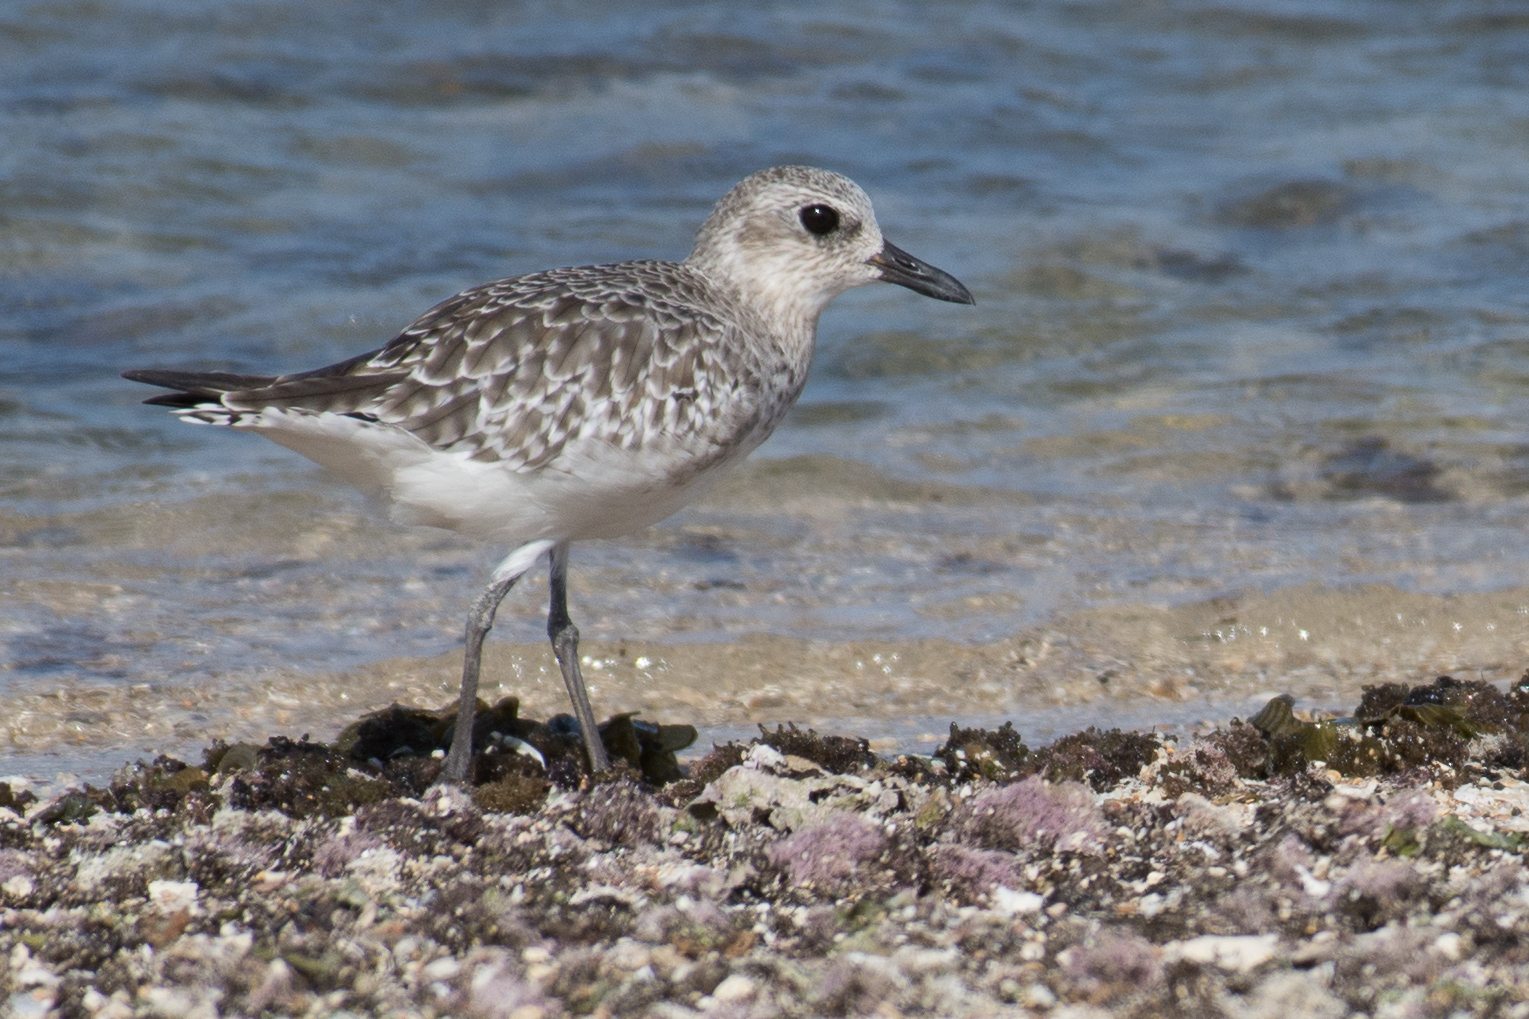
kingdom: Animalia
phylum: Chordata
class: Aves
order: Charadriiformes
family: Charadriidae
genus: Pluvialis
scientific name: Pluvialis squatarola
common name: Grey plover
